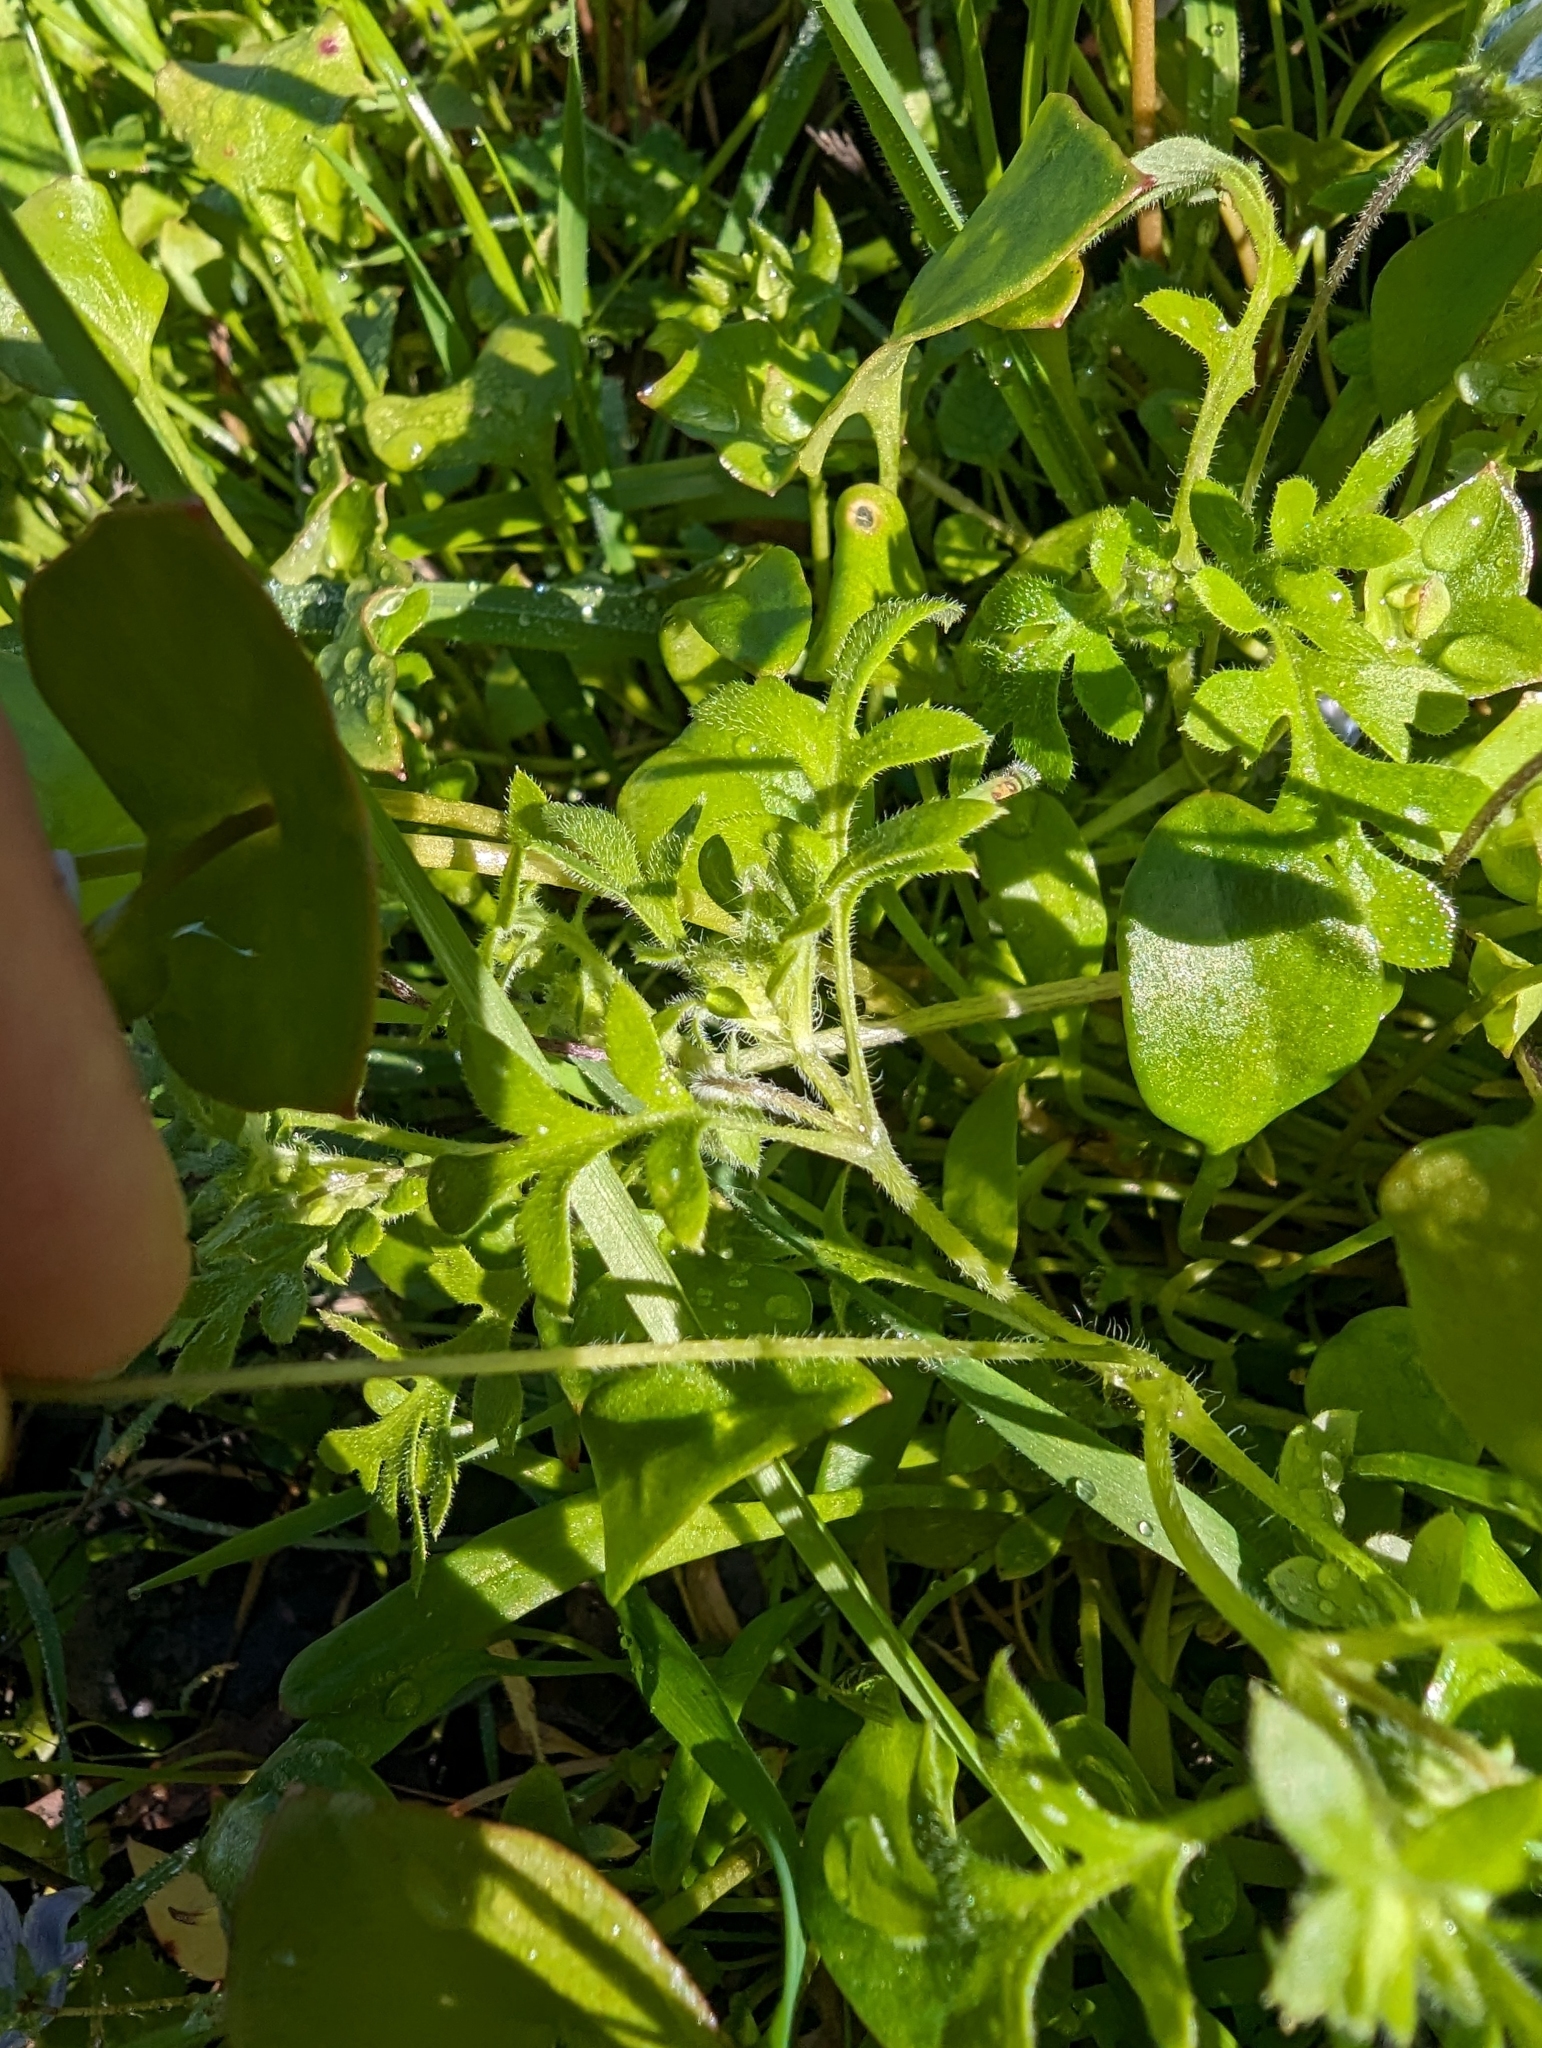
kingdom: Plantae
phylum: Tracheophyta
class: Magnoliopsida
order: Boraginales
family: Hydrophyllaceae
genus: Nemophila
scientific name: Nemophila menziesii
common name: Baby's-blue-eyes
